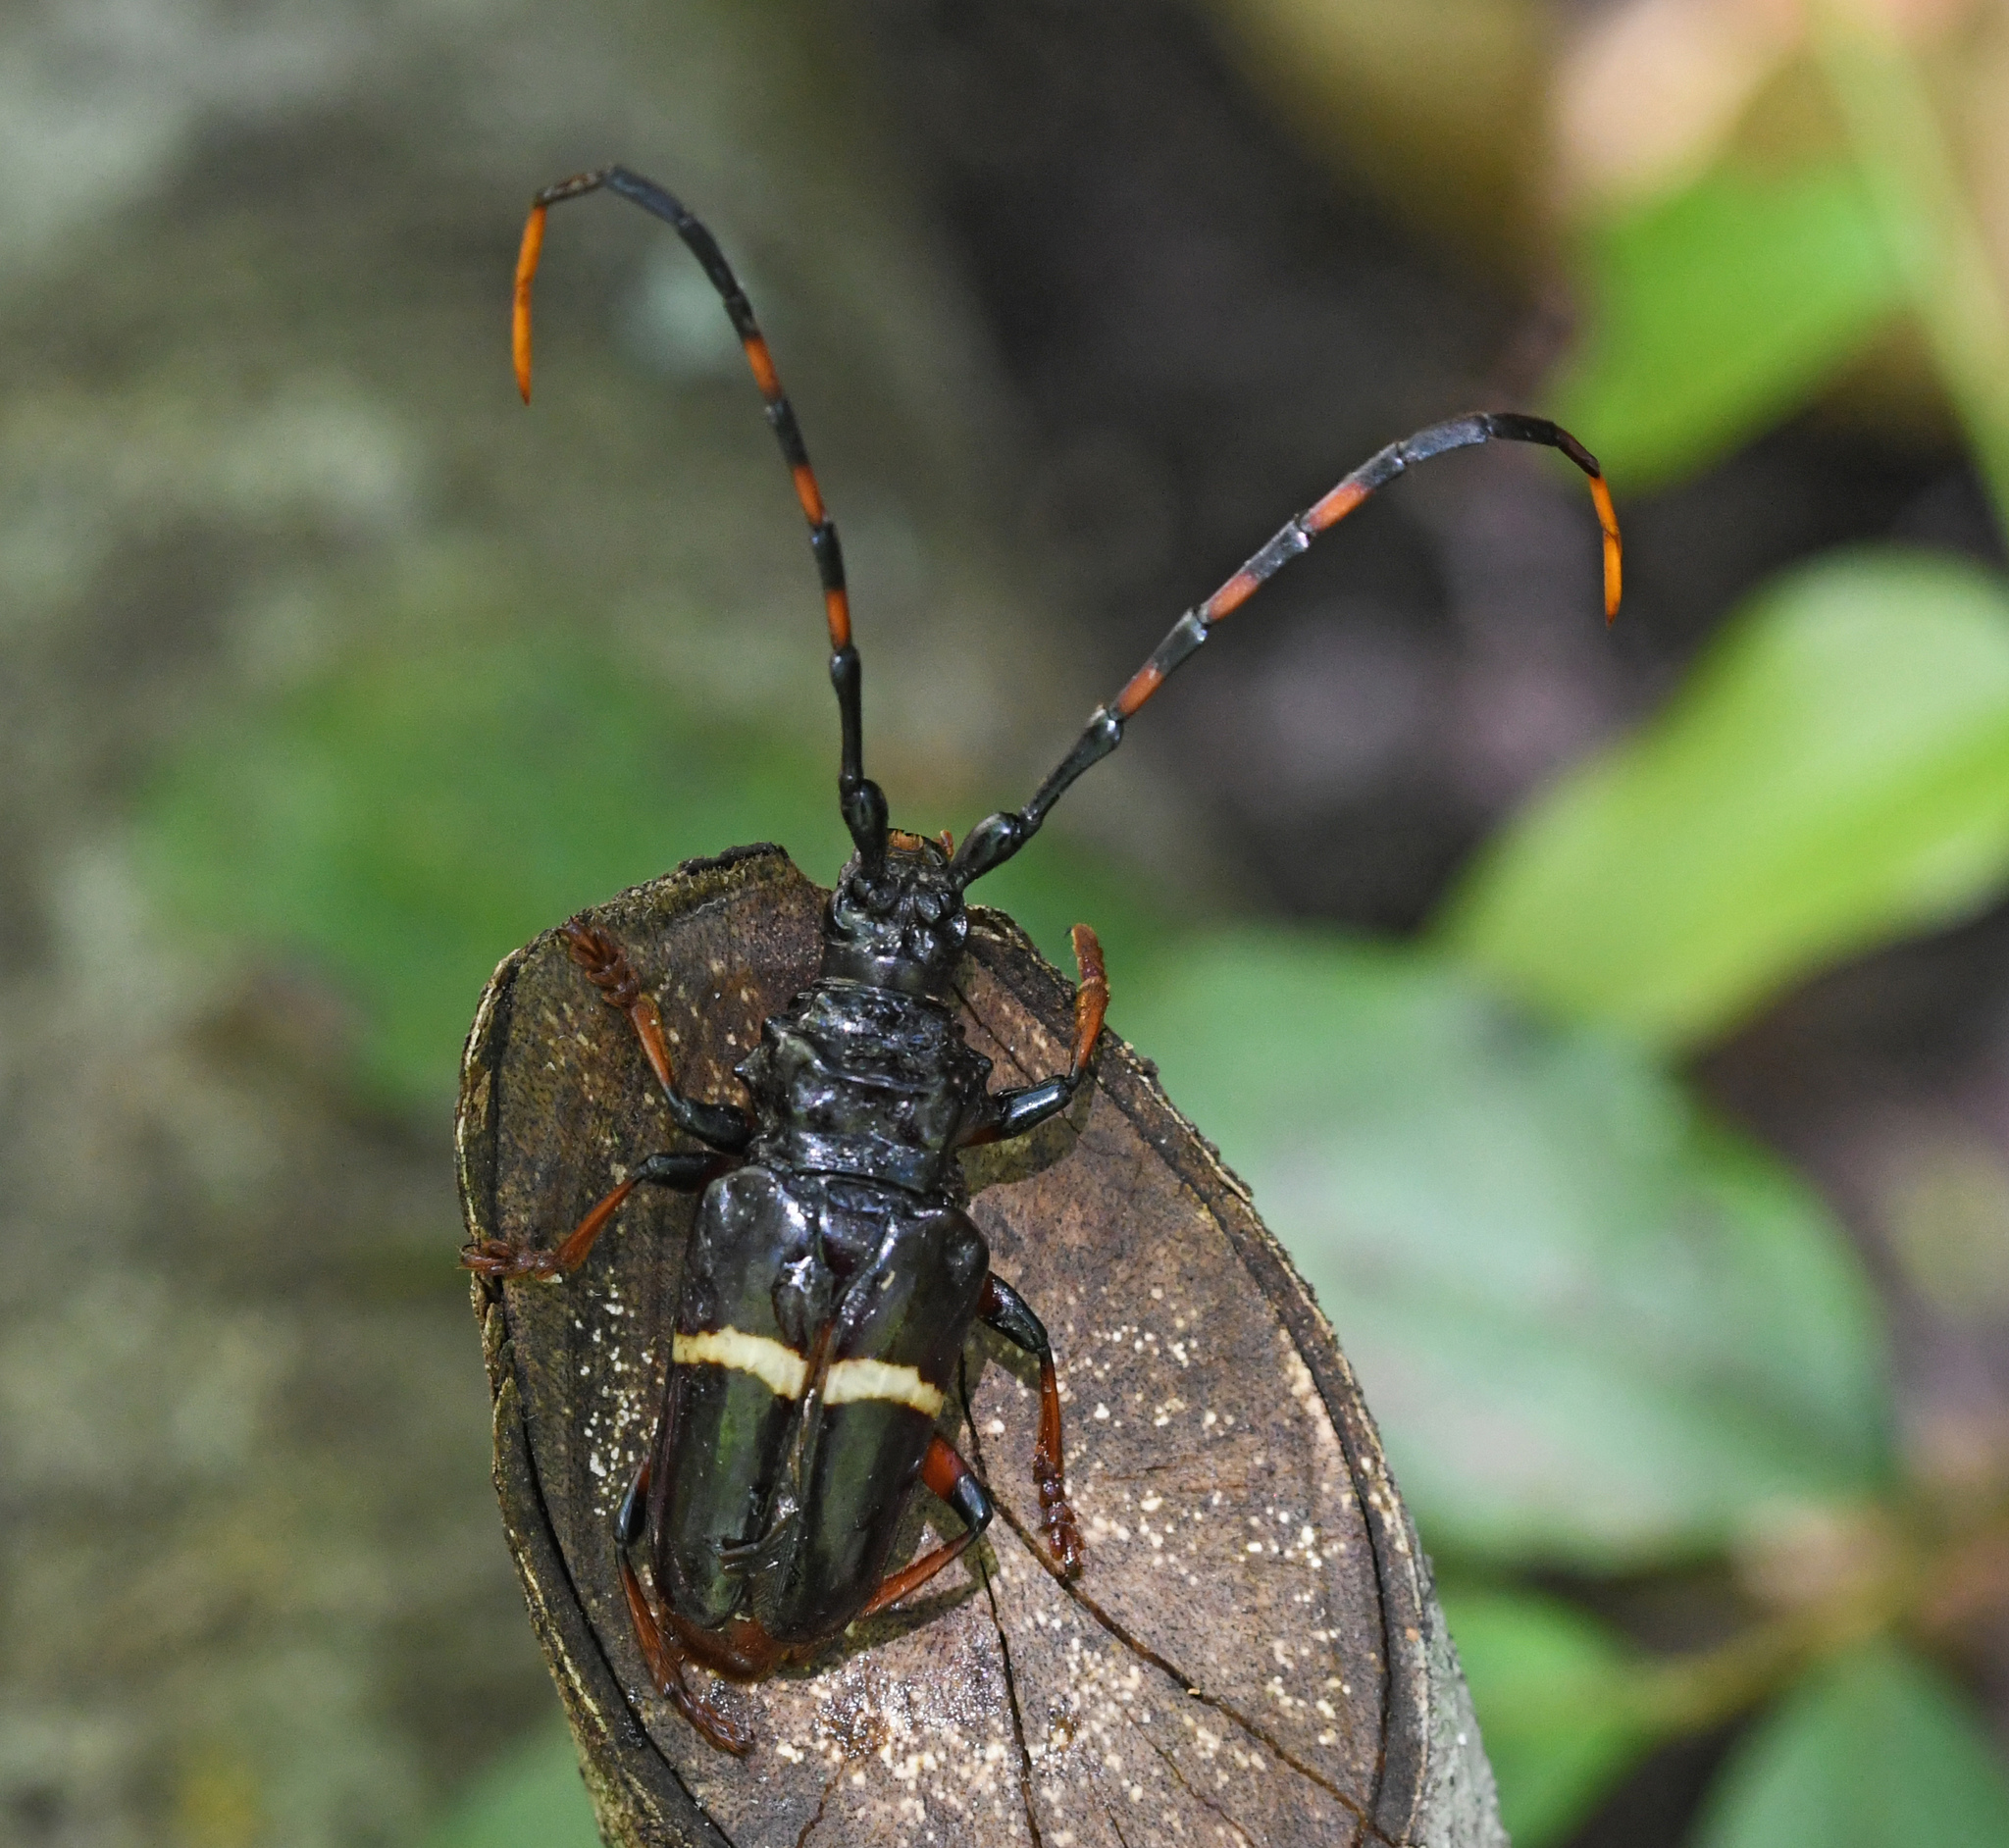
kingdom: Animalia
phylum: Arthropoda
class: Insecta
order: Coleoptera
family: Cerambycidae
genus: Trachyderes
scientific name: Trachyderes succinctus
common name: Mango longhorn
